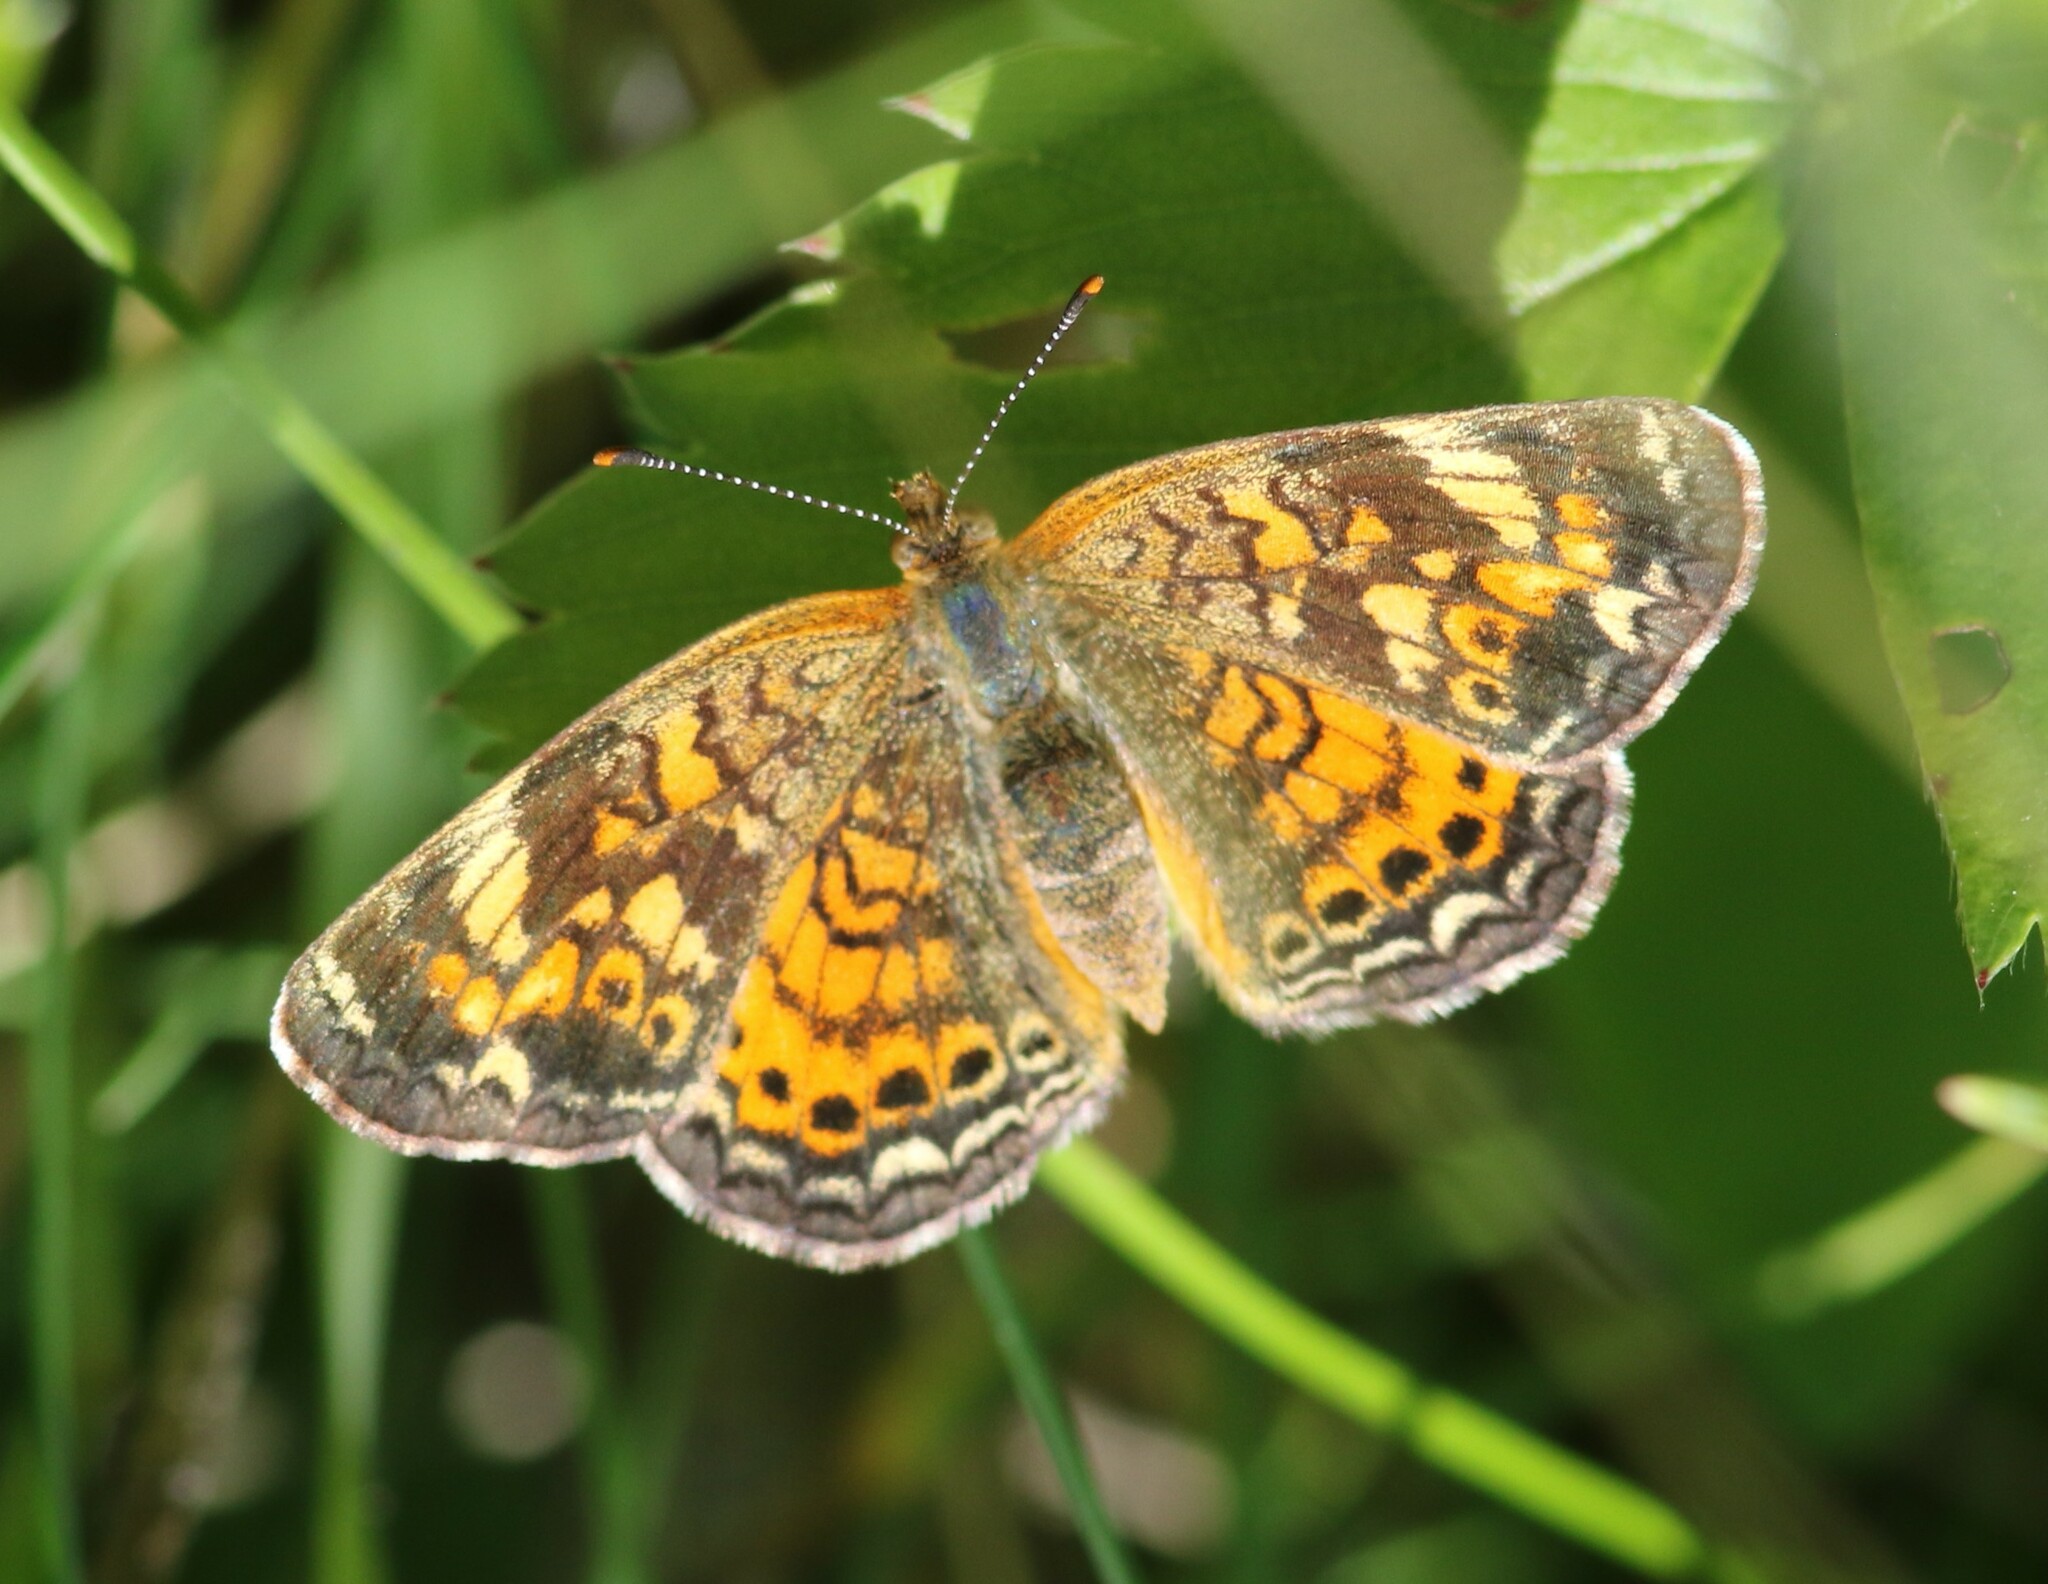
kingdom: Animalia
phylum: Arthropoda
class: Insecta
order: Lepidoptera
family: Nymphalidae
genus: Phyciodes
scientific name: Phyciodes tharos
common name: Pearl crescent
